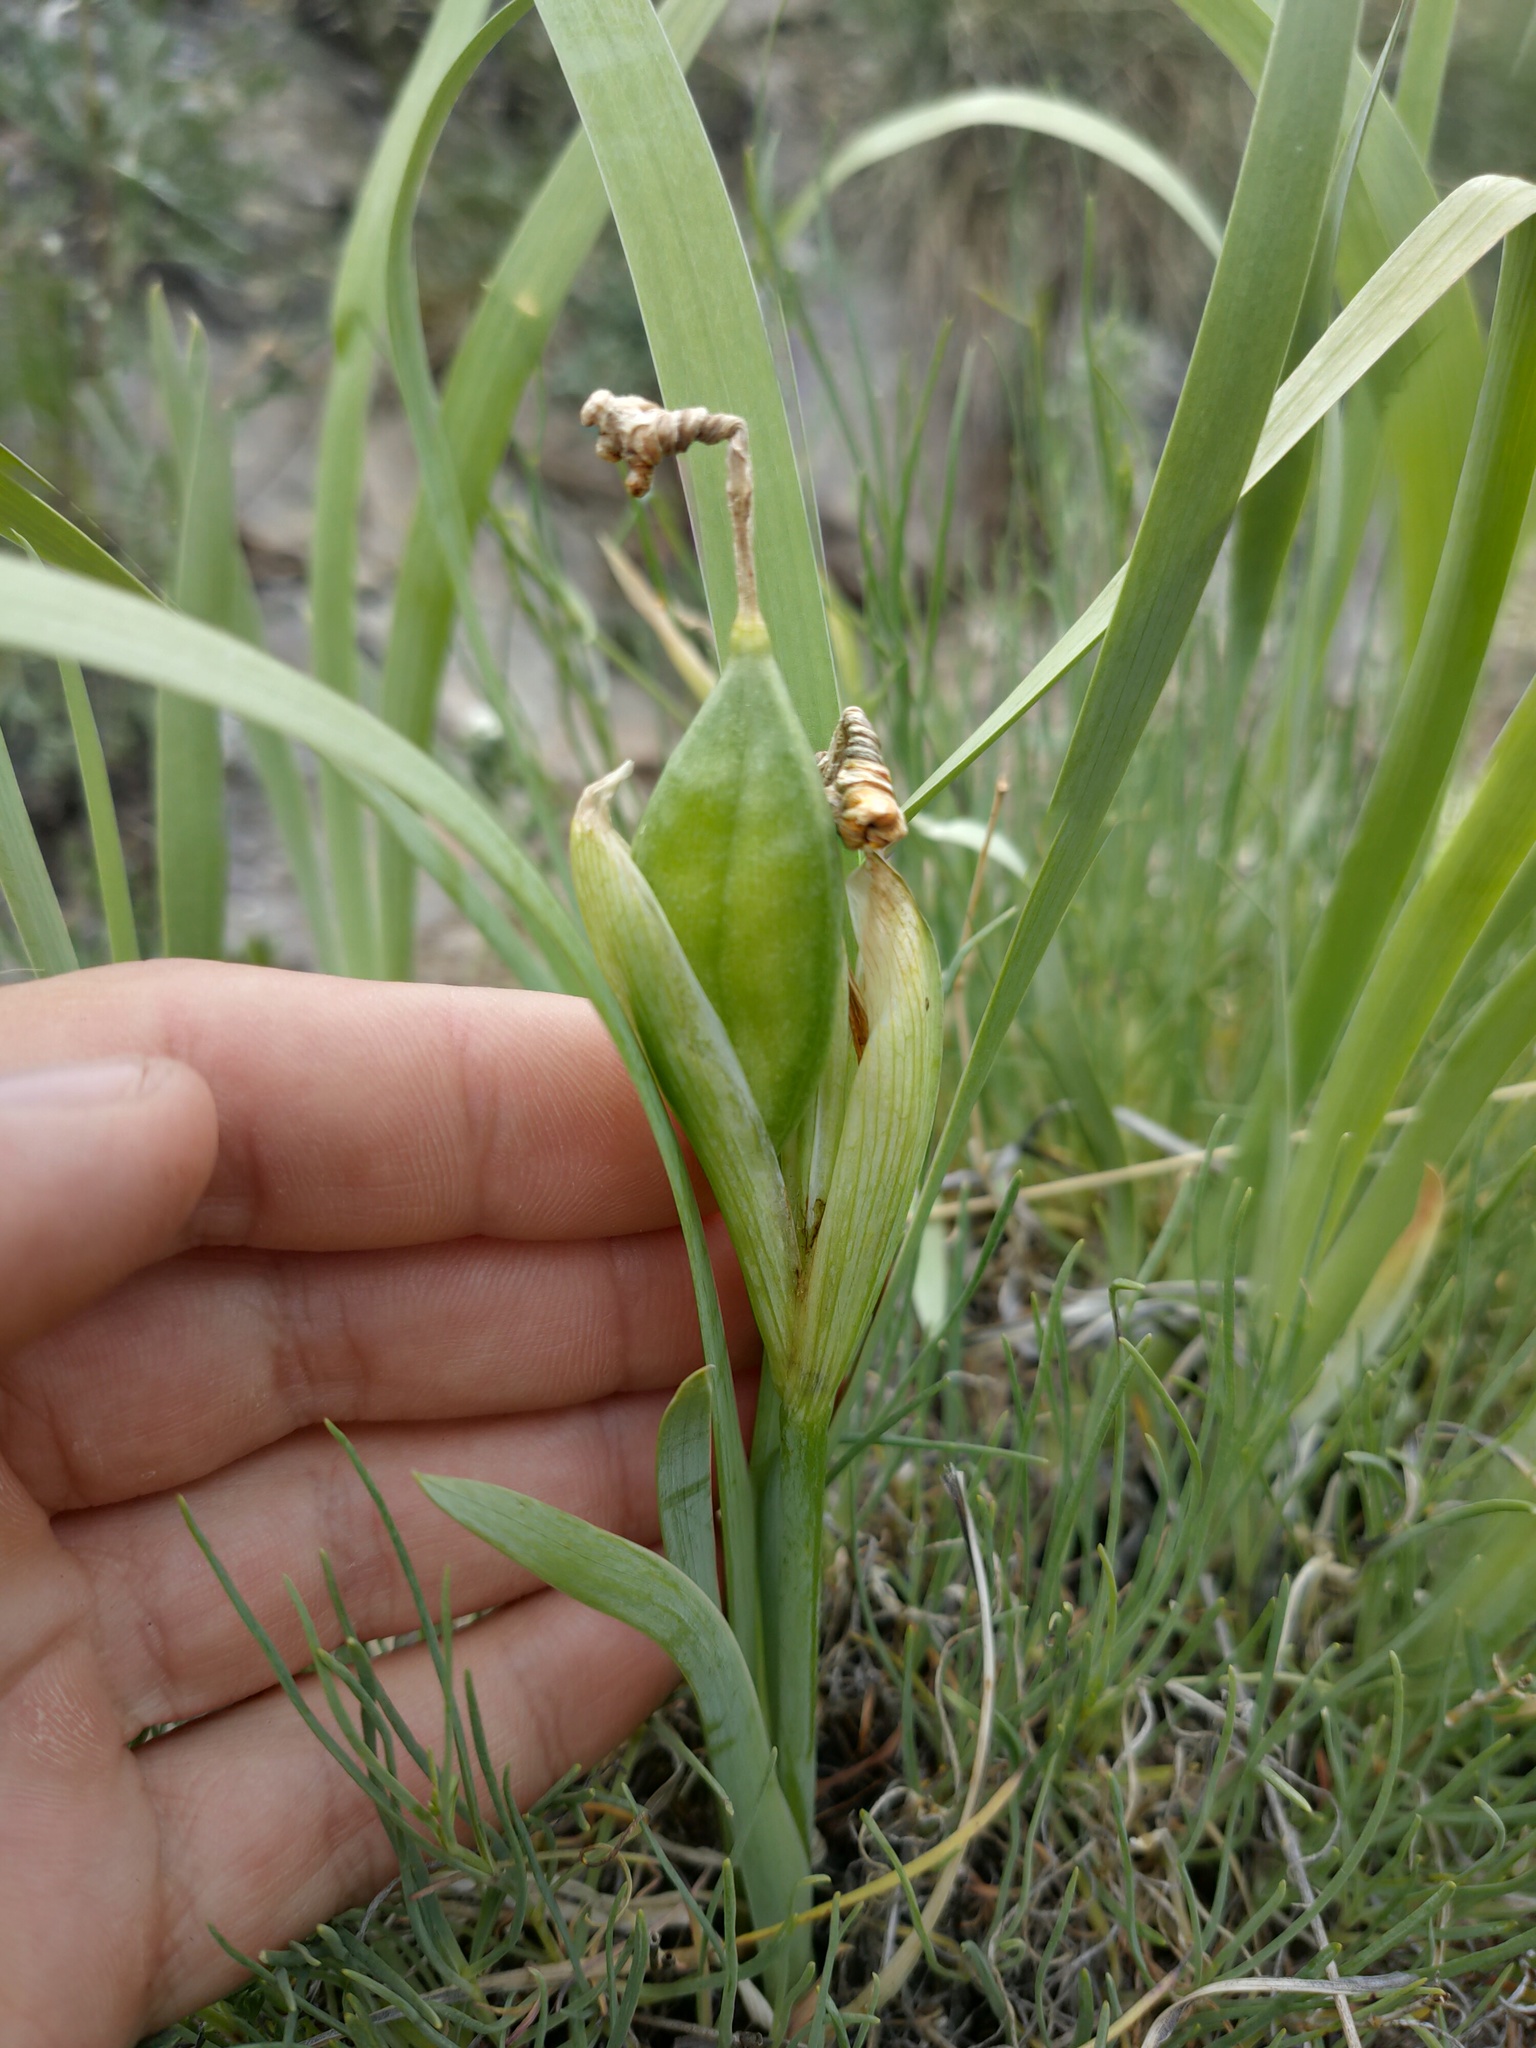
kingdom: Plantae
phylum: Tracheophyta
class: Liliopsida
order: Asparagales
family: Iridaceae
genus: Iris
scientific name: Iris humilis
